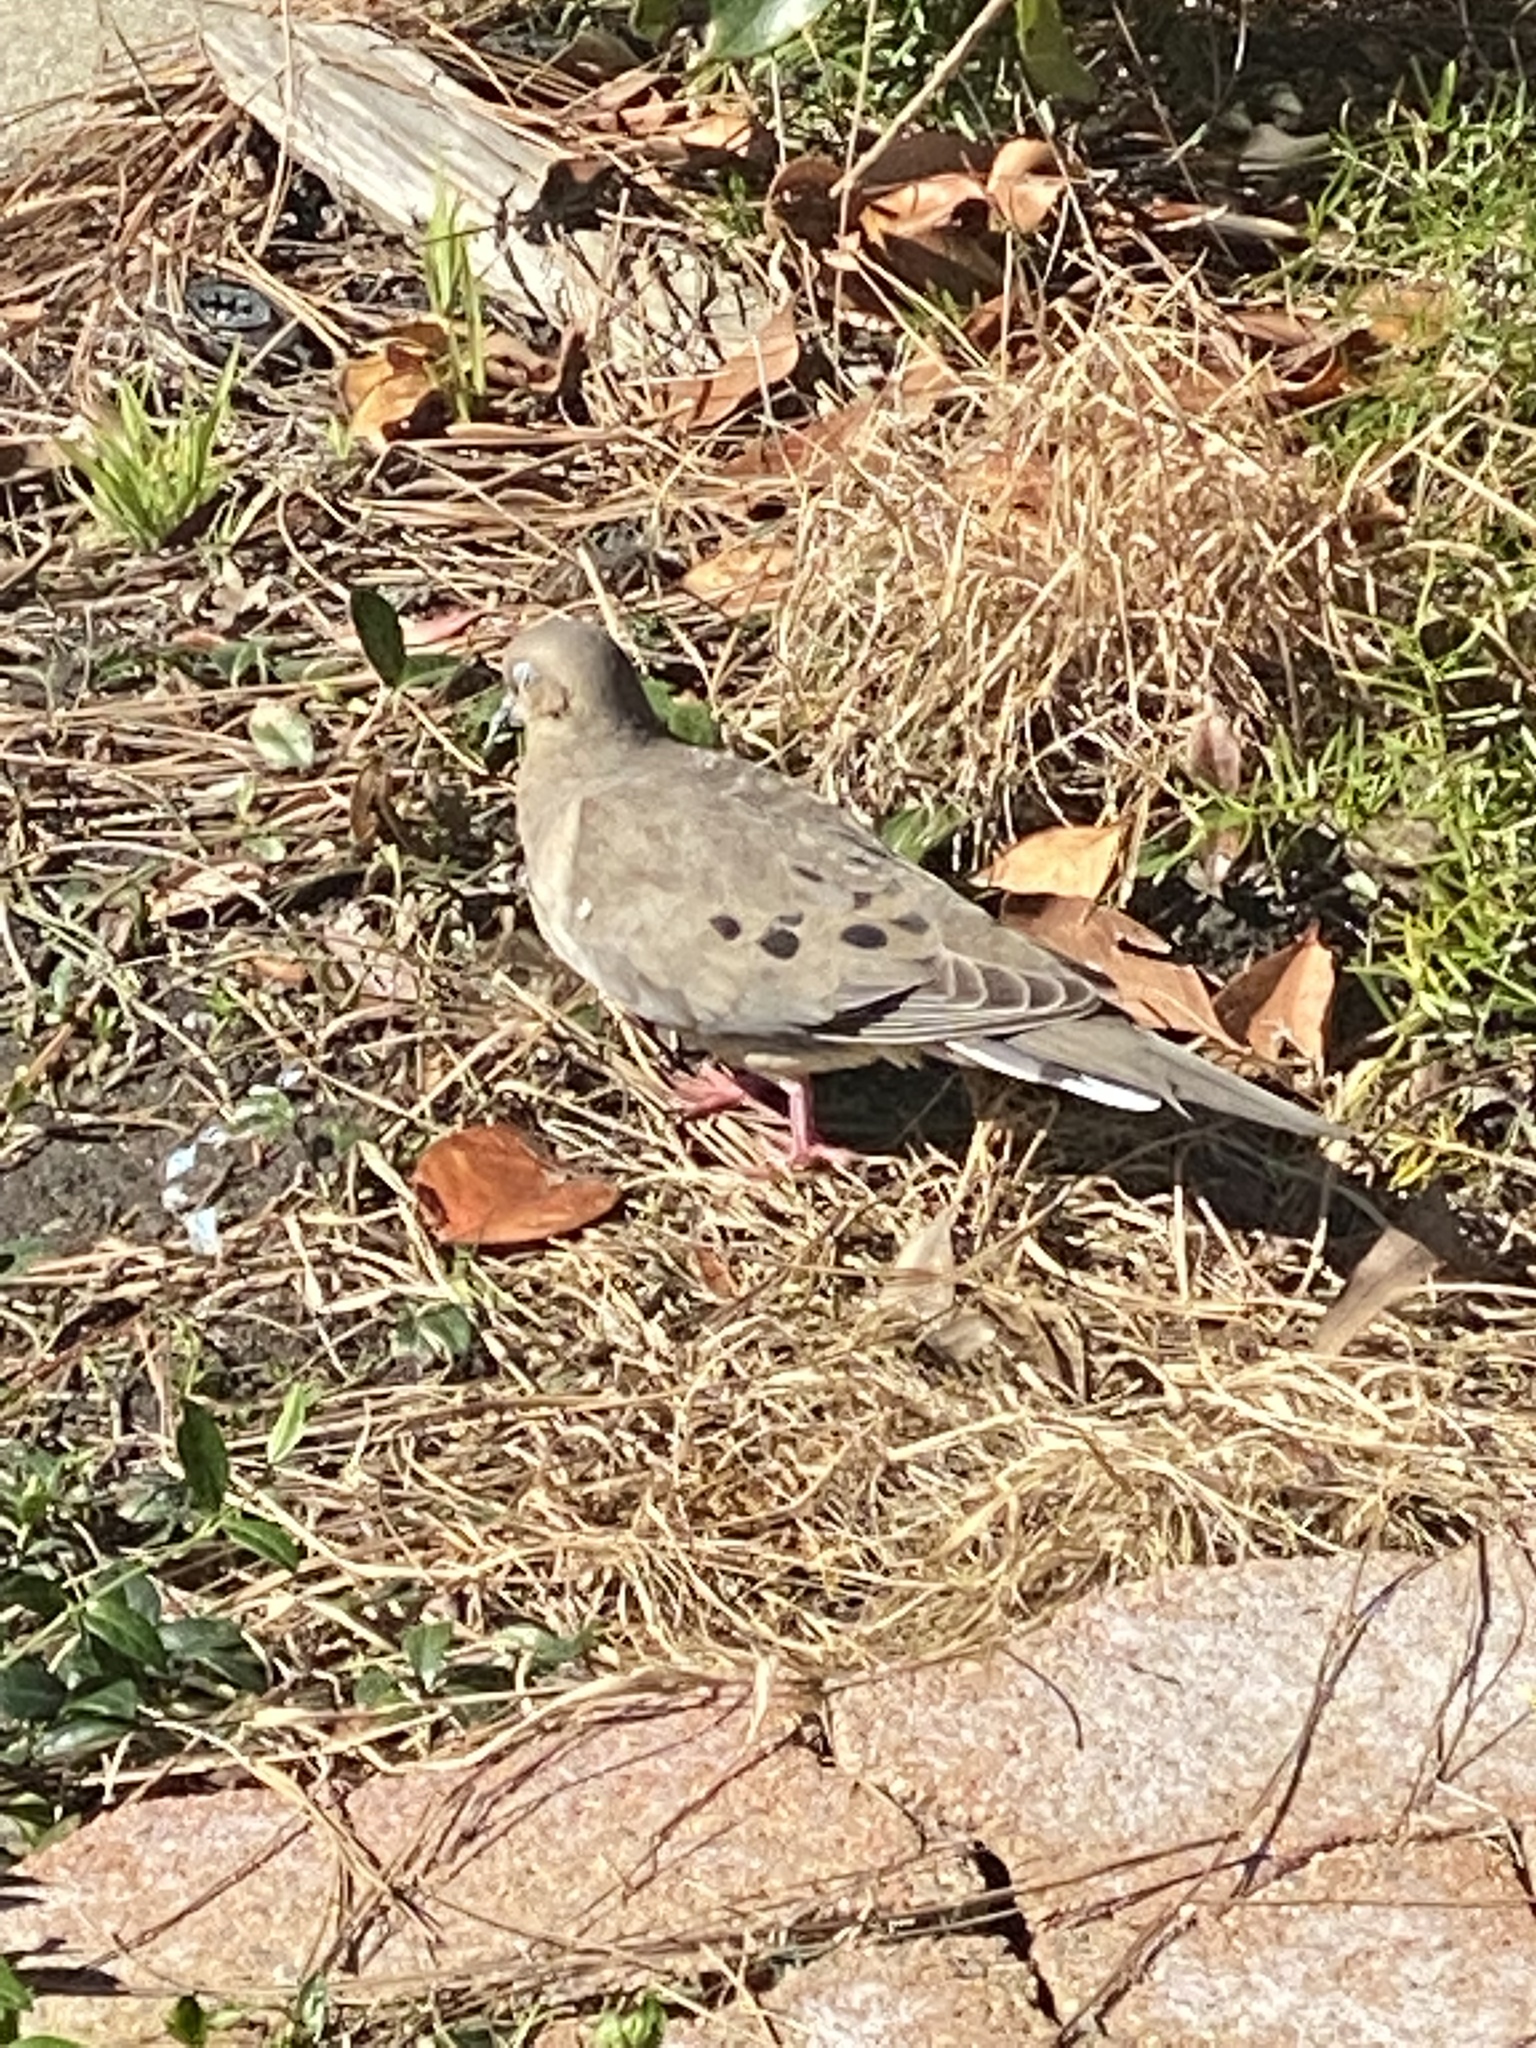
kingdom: Animalia
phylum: Chordata
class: Aves
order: Columbiformes
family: Columbidae
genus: Zenaida
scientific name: Zenaida macroura
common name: Mourning dove
